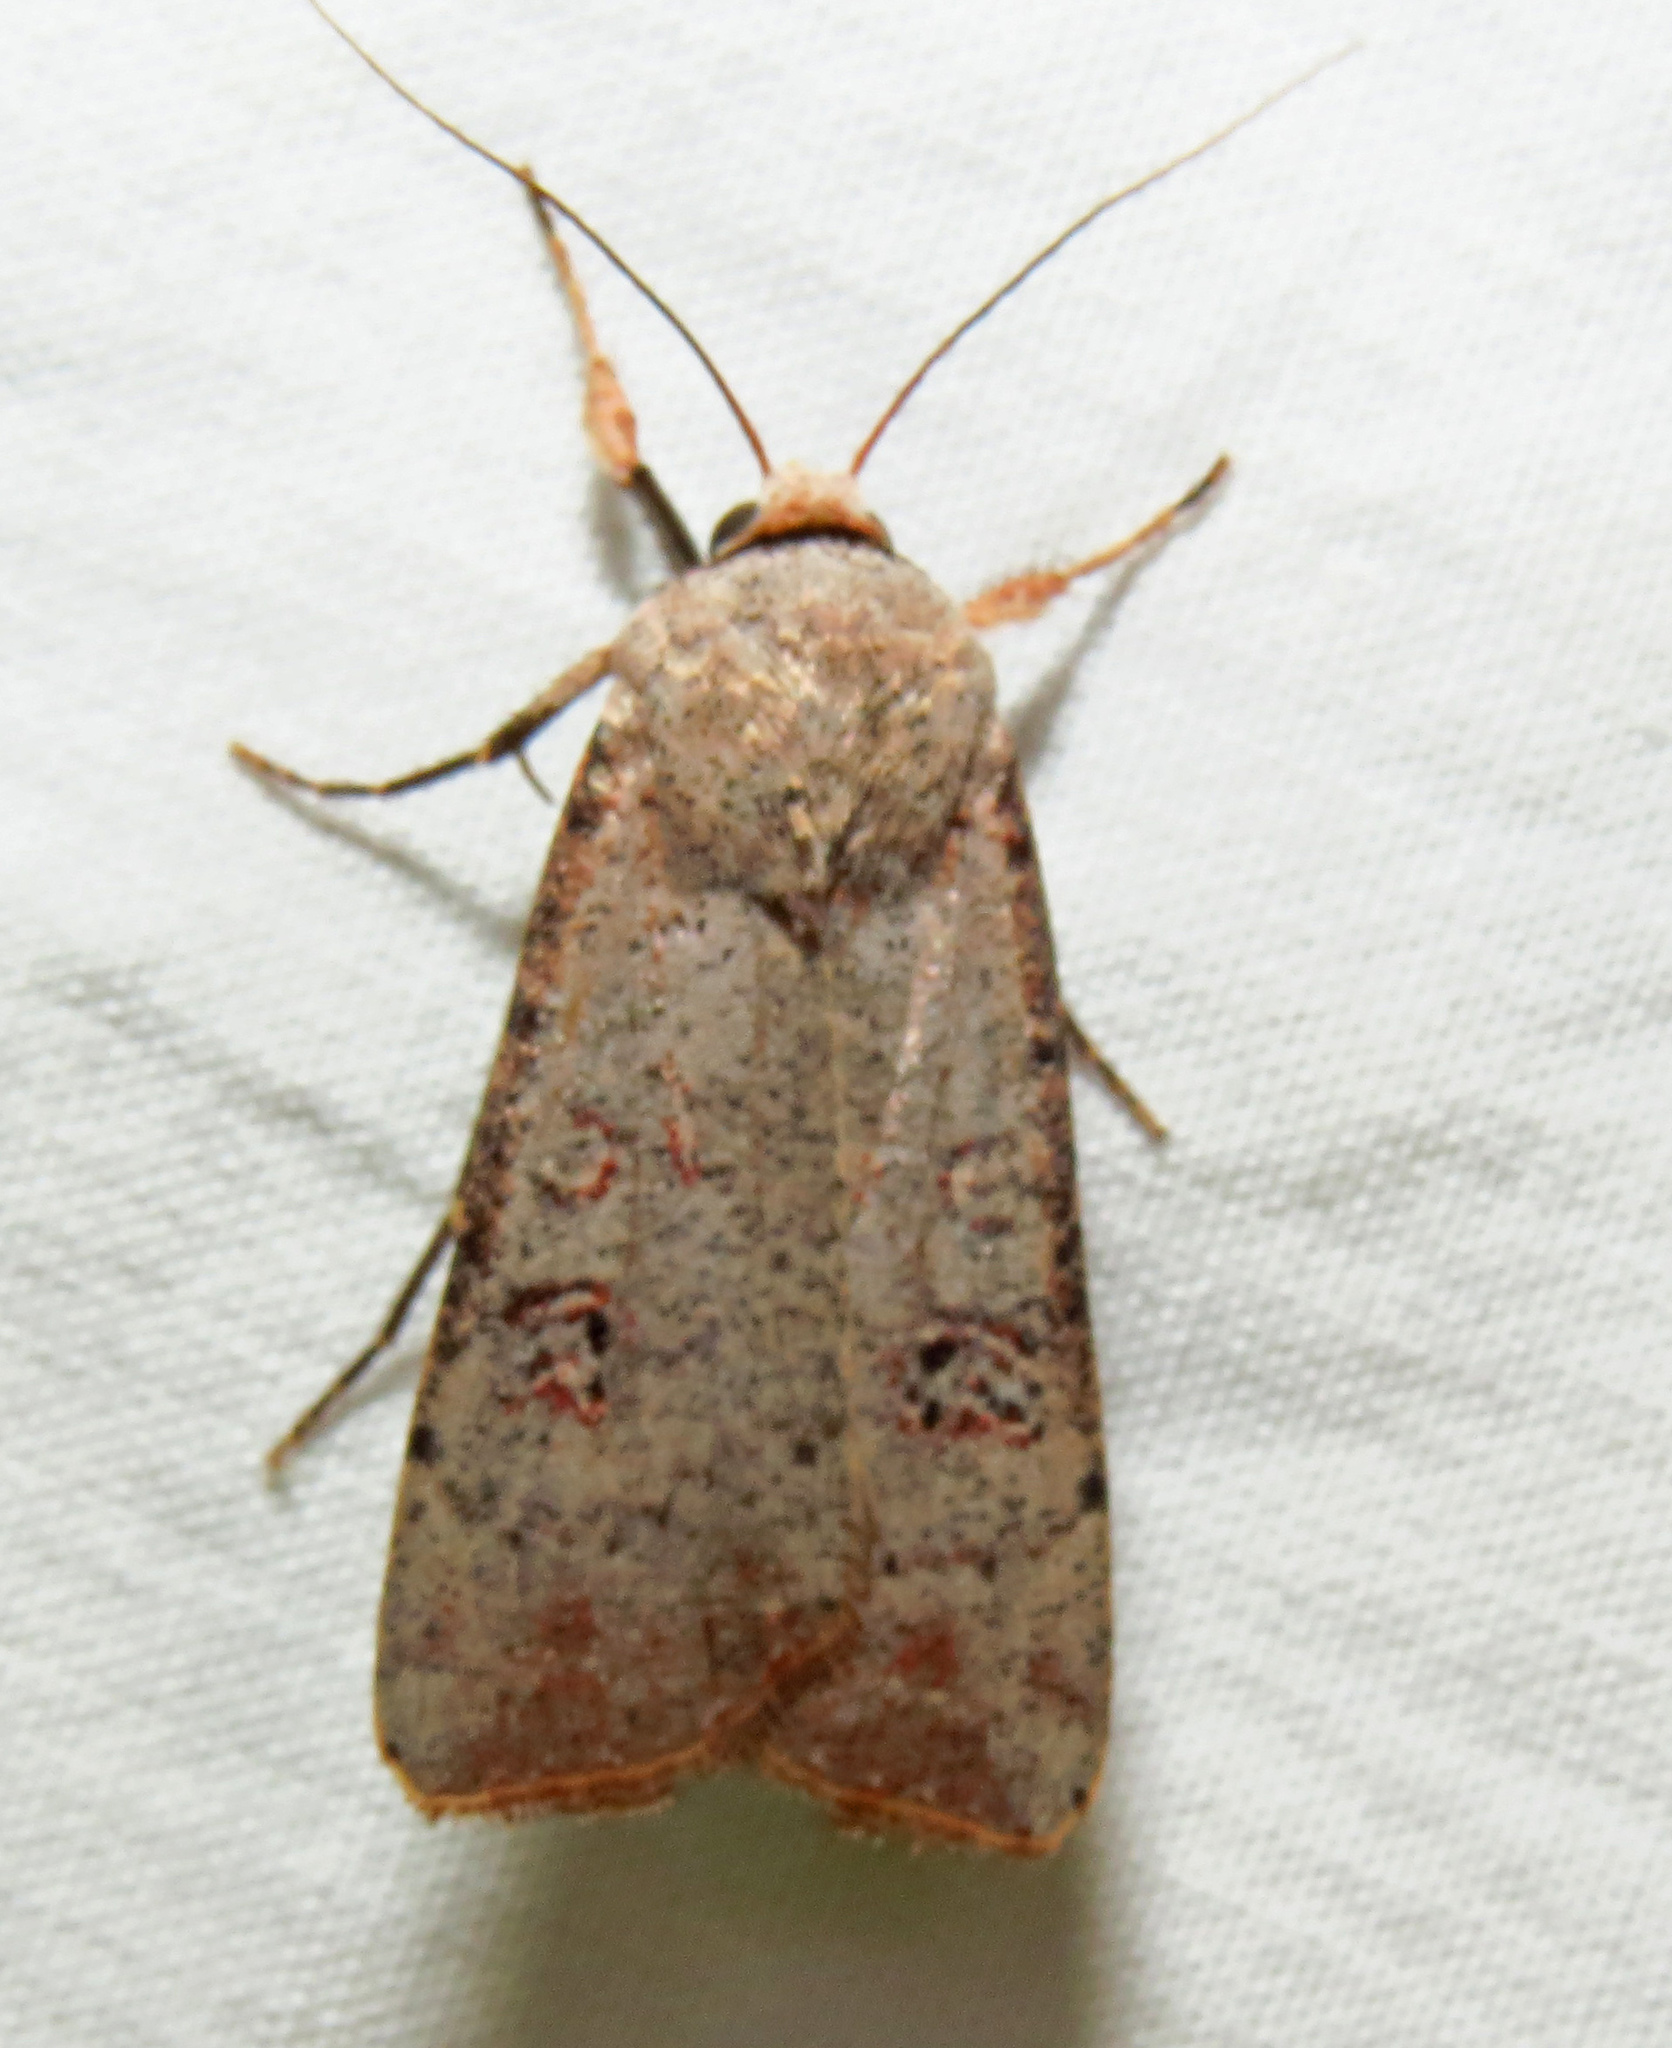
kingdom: Animalia
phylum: Arthropoda
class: Insecta
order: Lepidoptera
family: Noctuidae
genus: Anicla
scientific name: Anicla infecta
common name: Green cutworm
